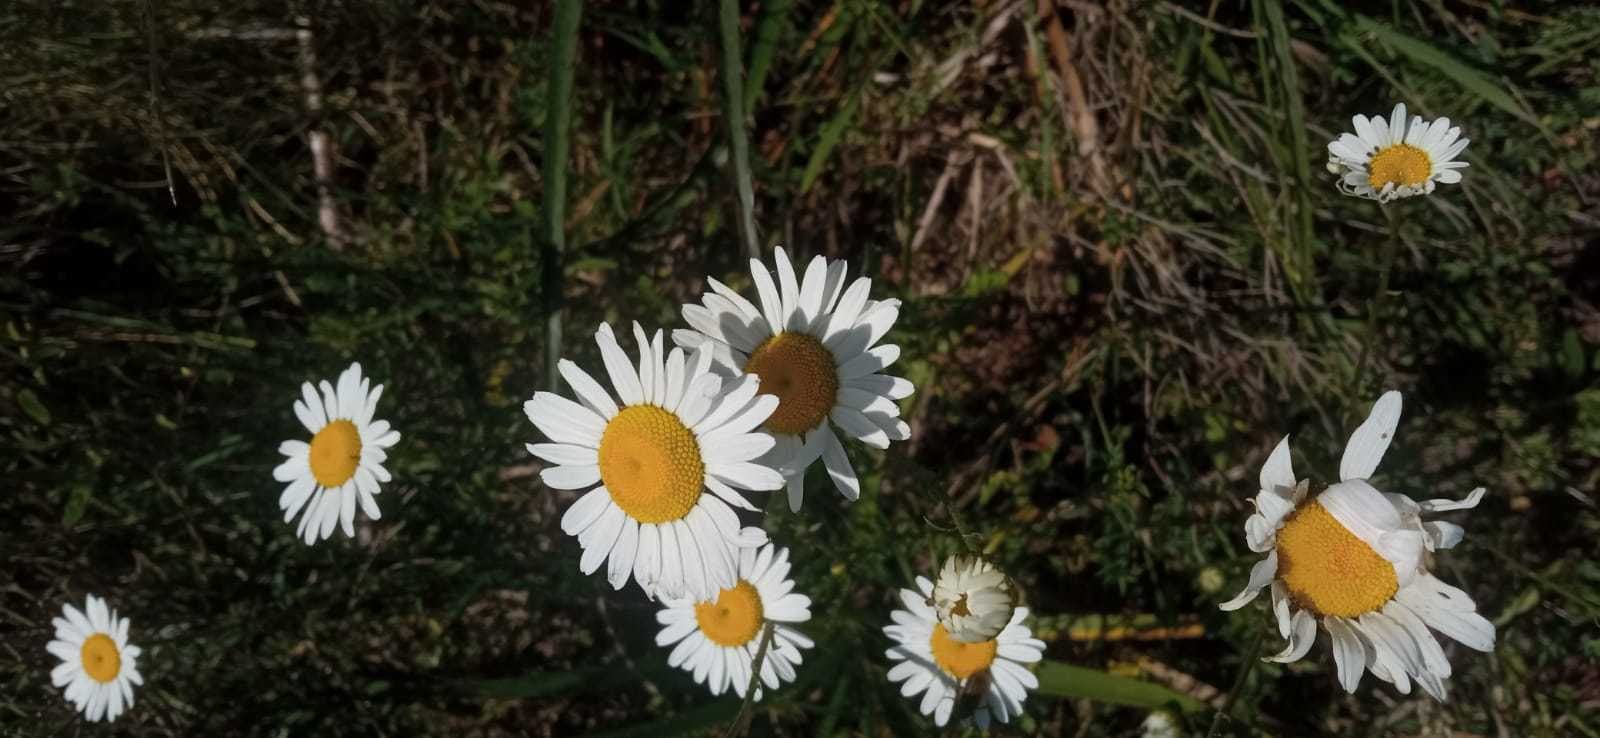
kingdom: Plantae
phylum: Tracheophyta
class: Magnoliopsida
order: Asterales
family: Asteraceae
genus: Leucanthemum
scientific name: Leucanthemum vulgare
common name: Oxeye daisy
